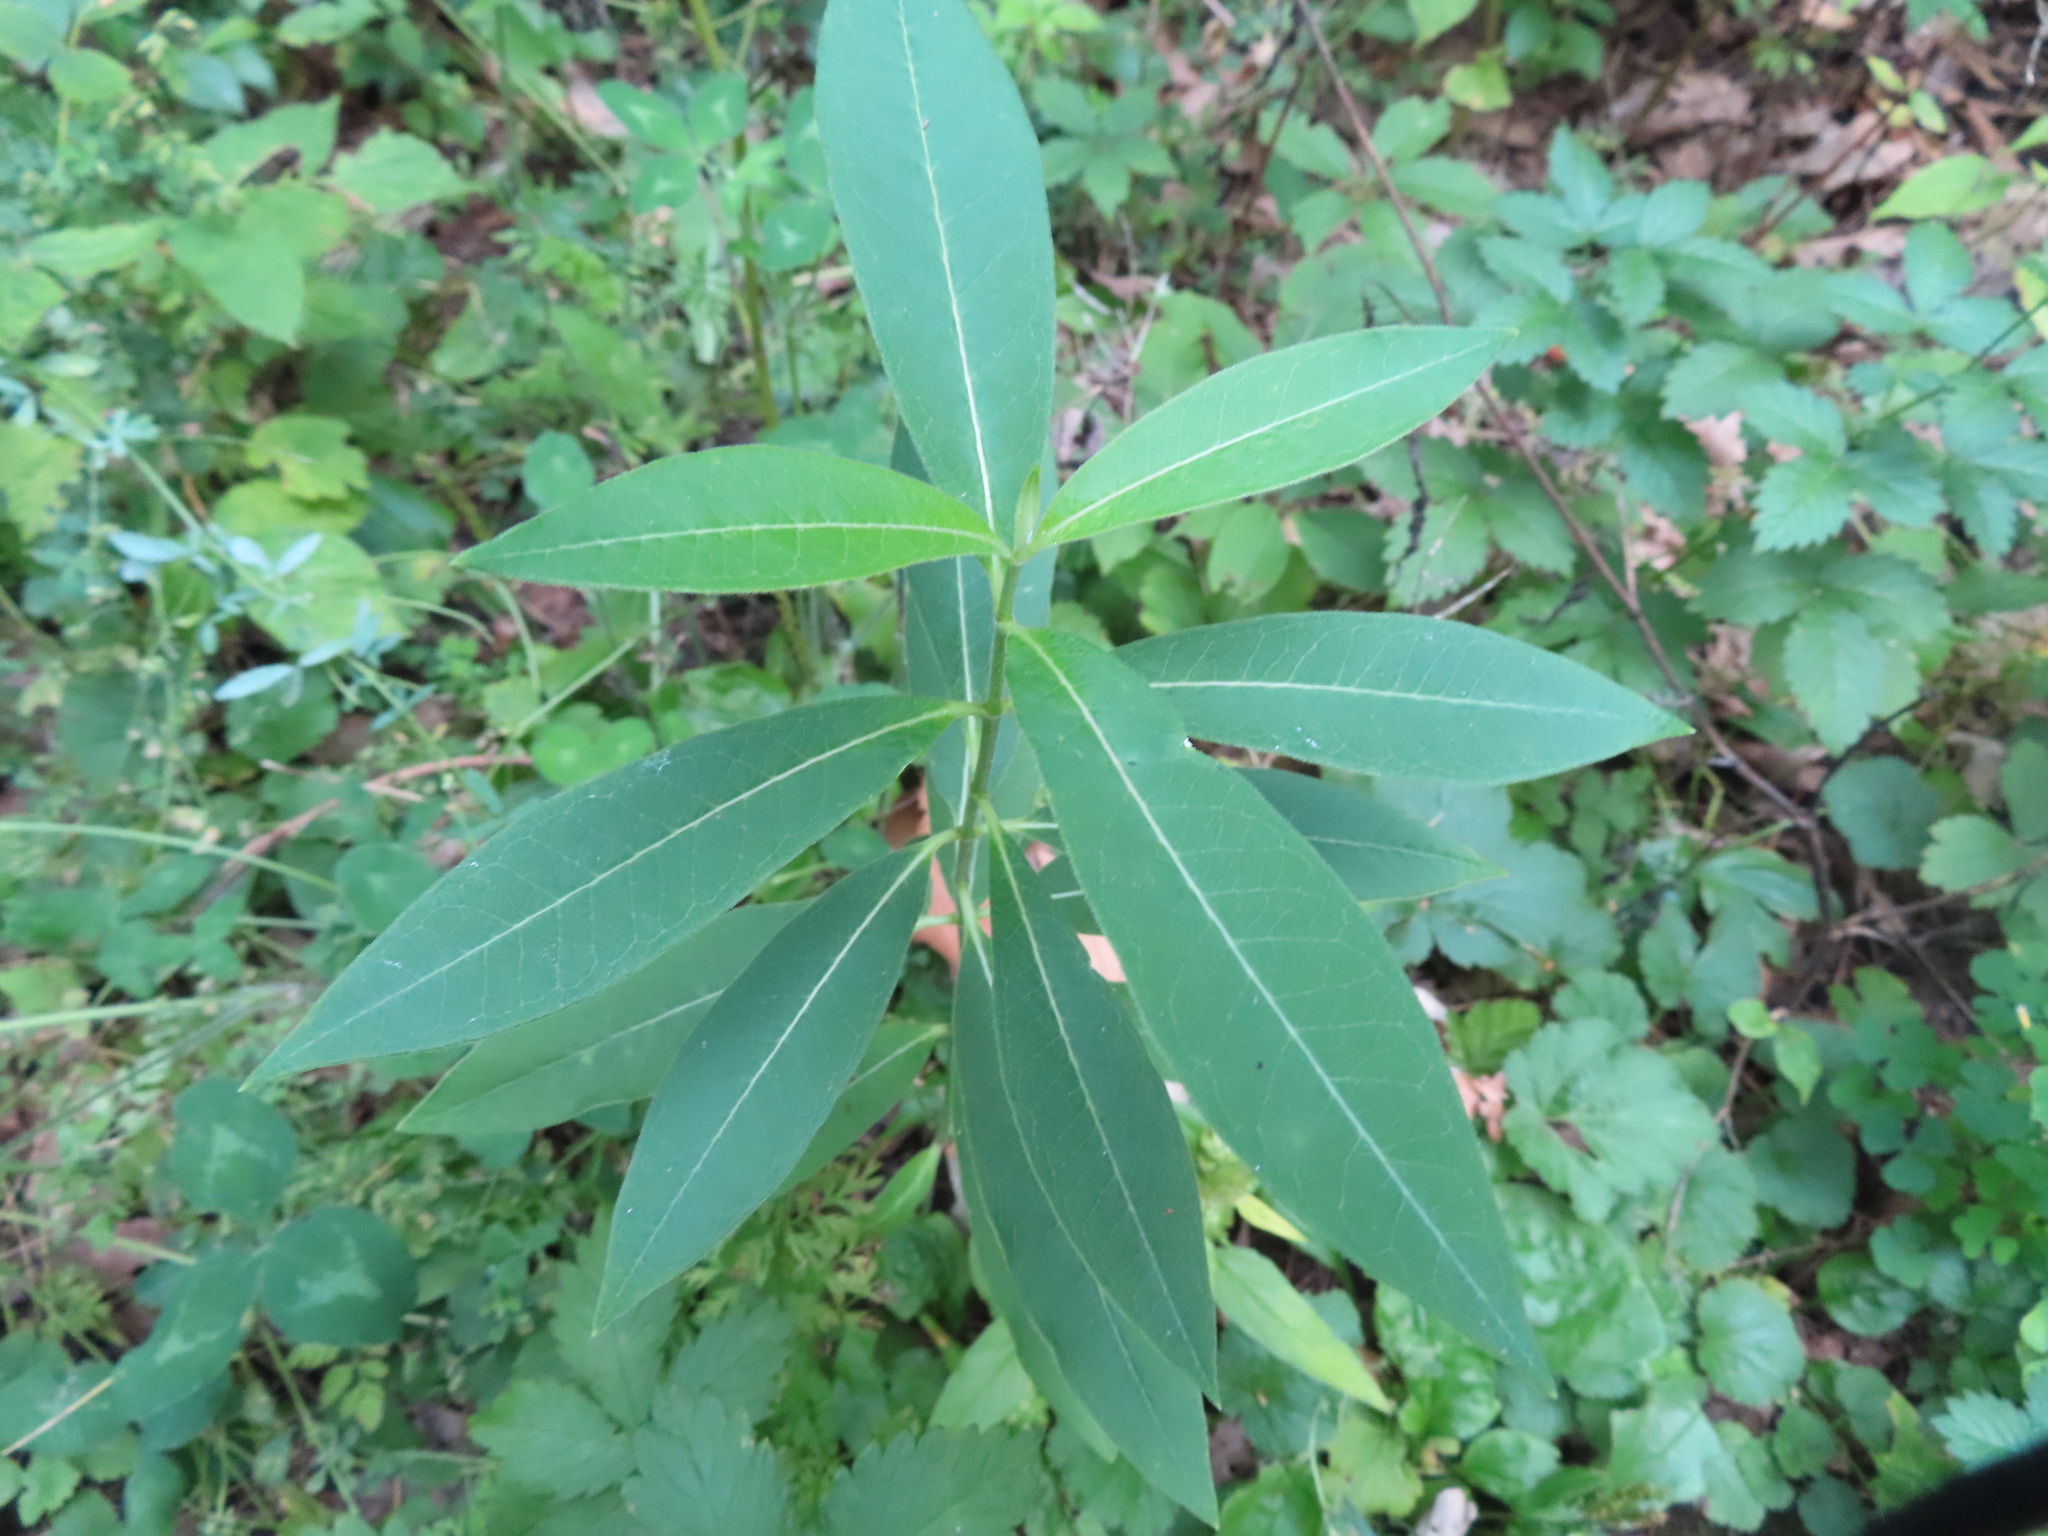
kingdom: Plantae
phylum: Tracheophyta
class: Magnoliopsida
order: Gentianales
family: Apocynaceae
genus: Asclepias
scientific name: Asclepias syriaca
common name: Common milkweed
